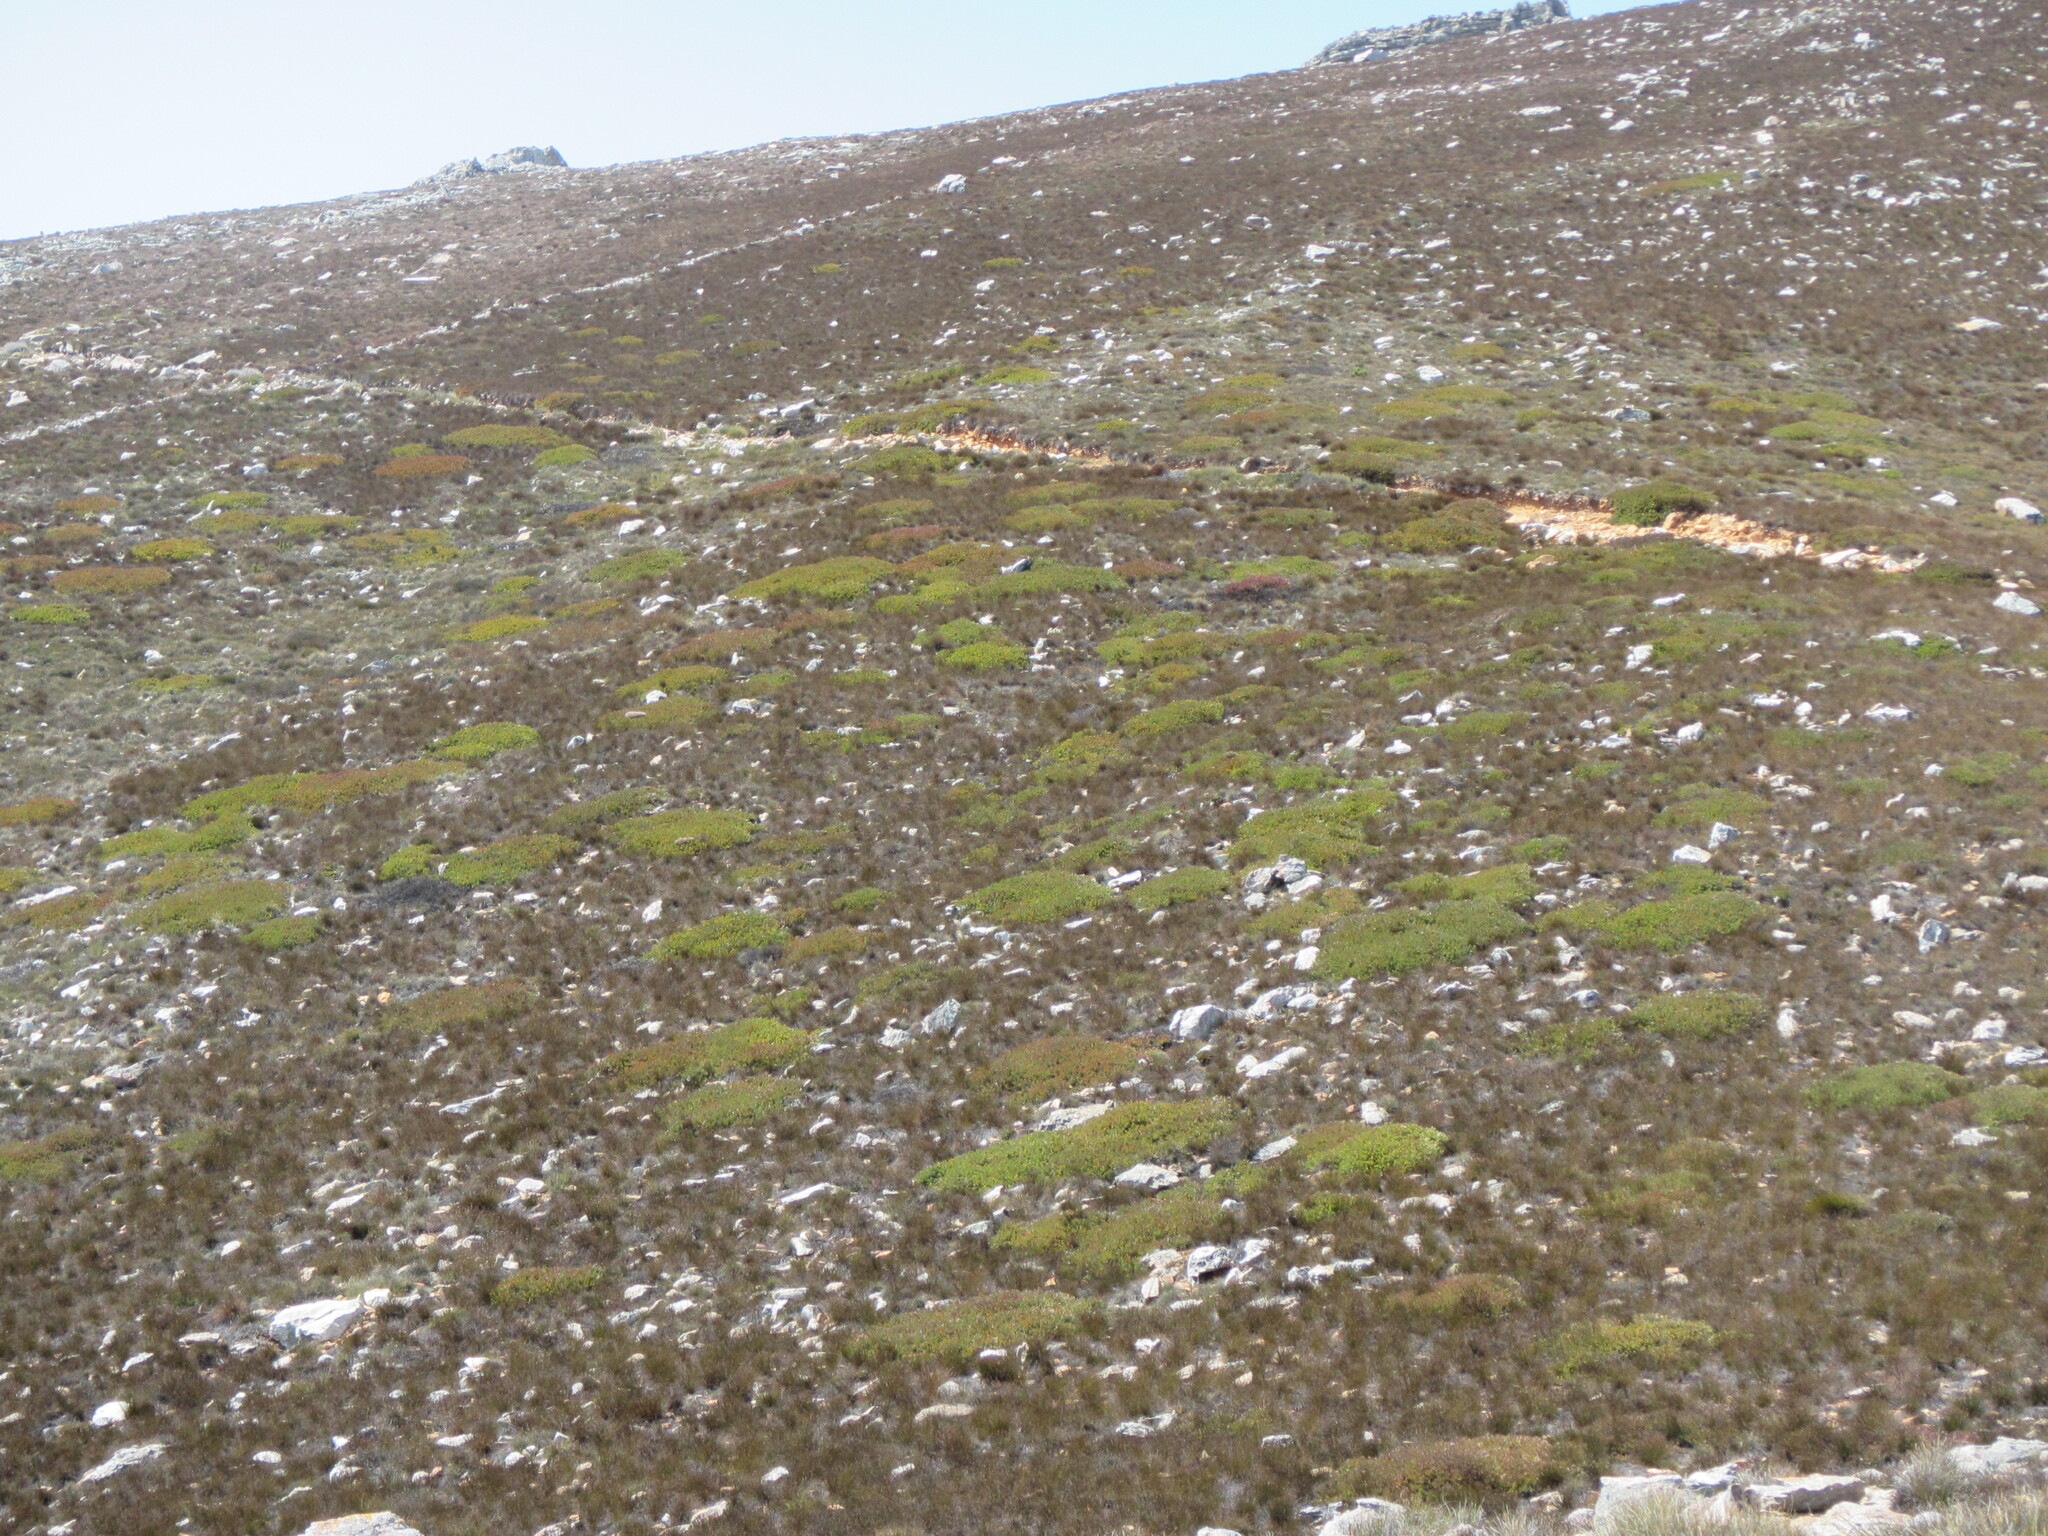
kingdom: Plantae
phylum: Tracheophyta
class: Magnoliopsida
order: Proteales
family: Proteaceae
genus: Protea
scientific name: Protea effusa
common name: Scarlet sugarbush
